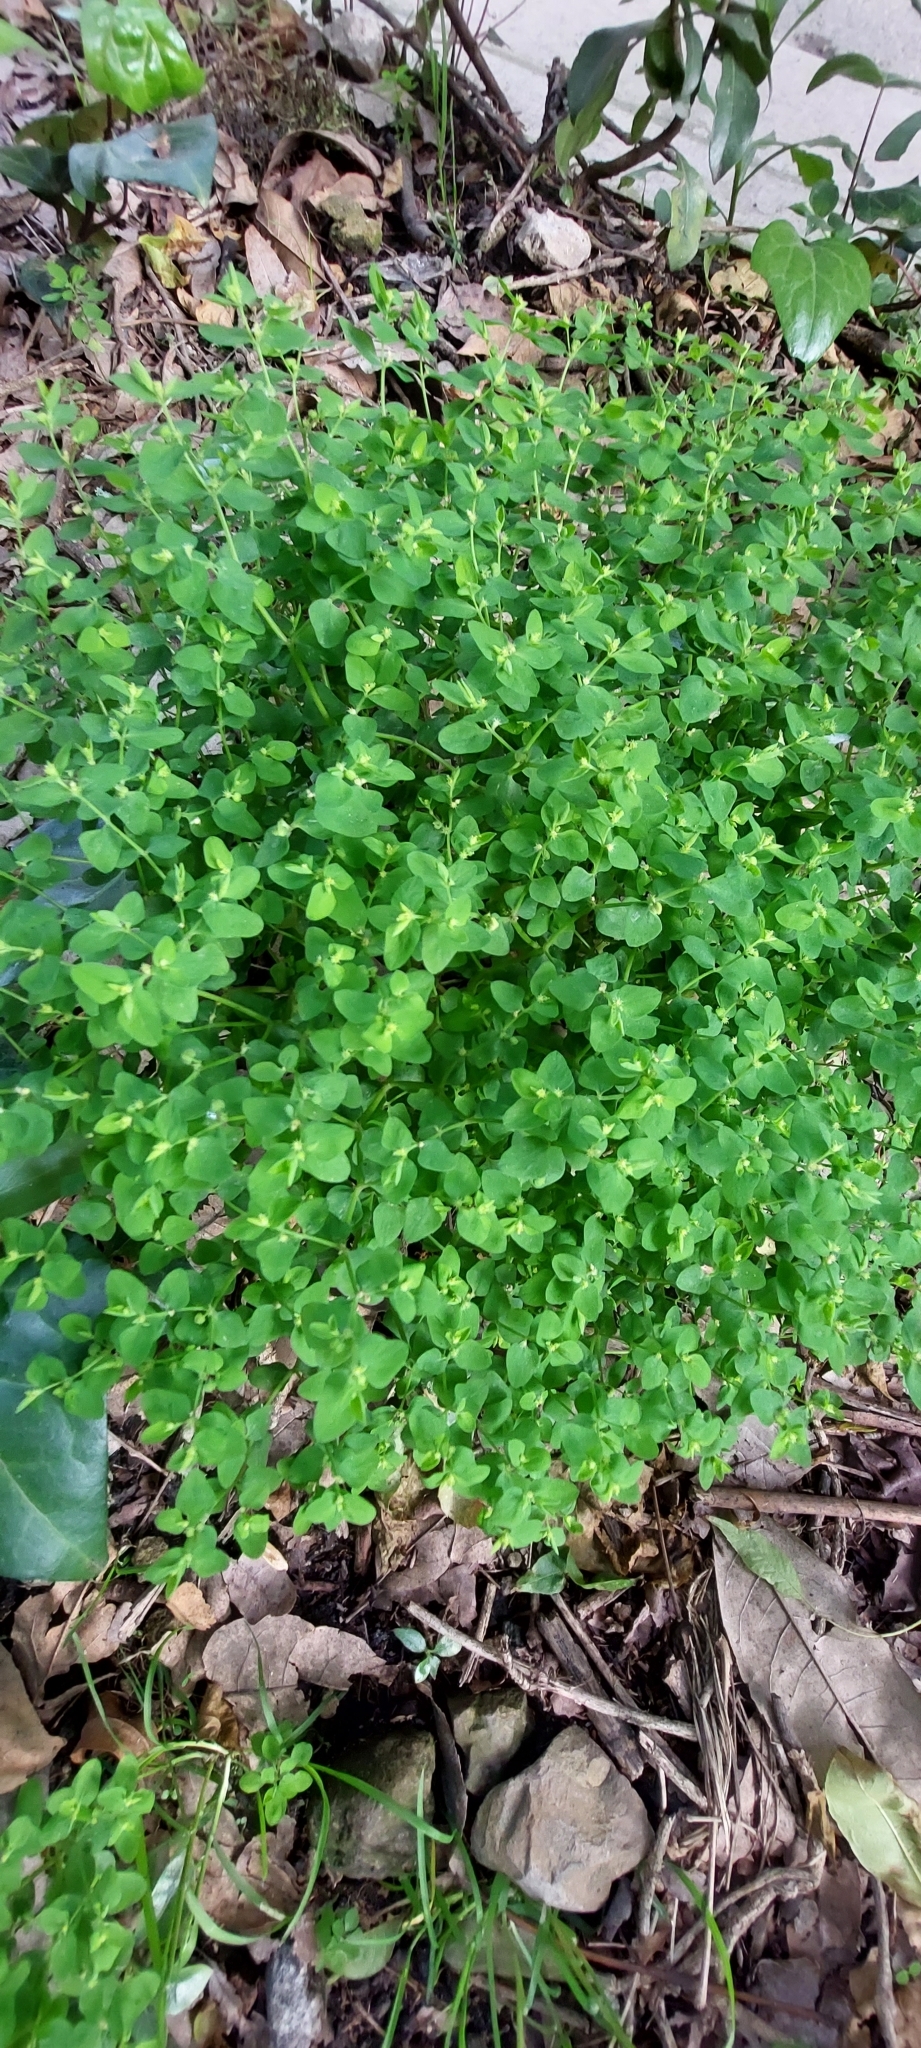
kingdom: Plantae
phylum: Tracheophyta
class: Magnoliopsida
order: Malpighiales
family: Euphorbiaceae
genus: Euphorbia
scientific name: Euphorbia peplus
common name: Petty spurge
